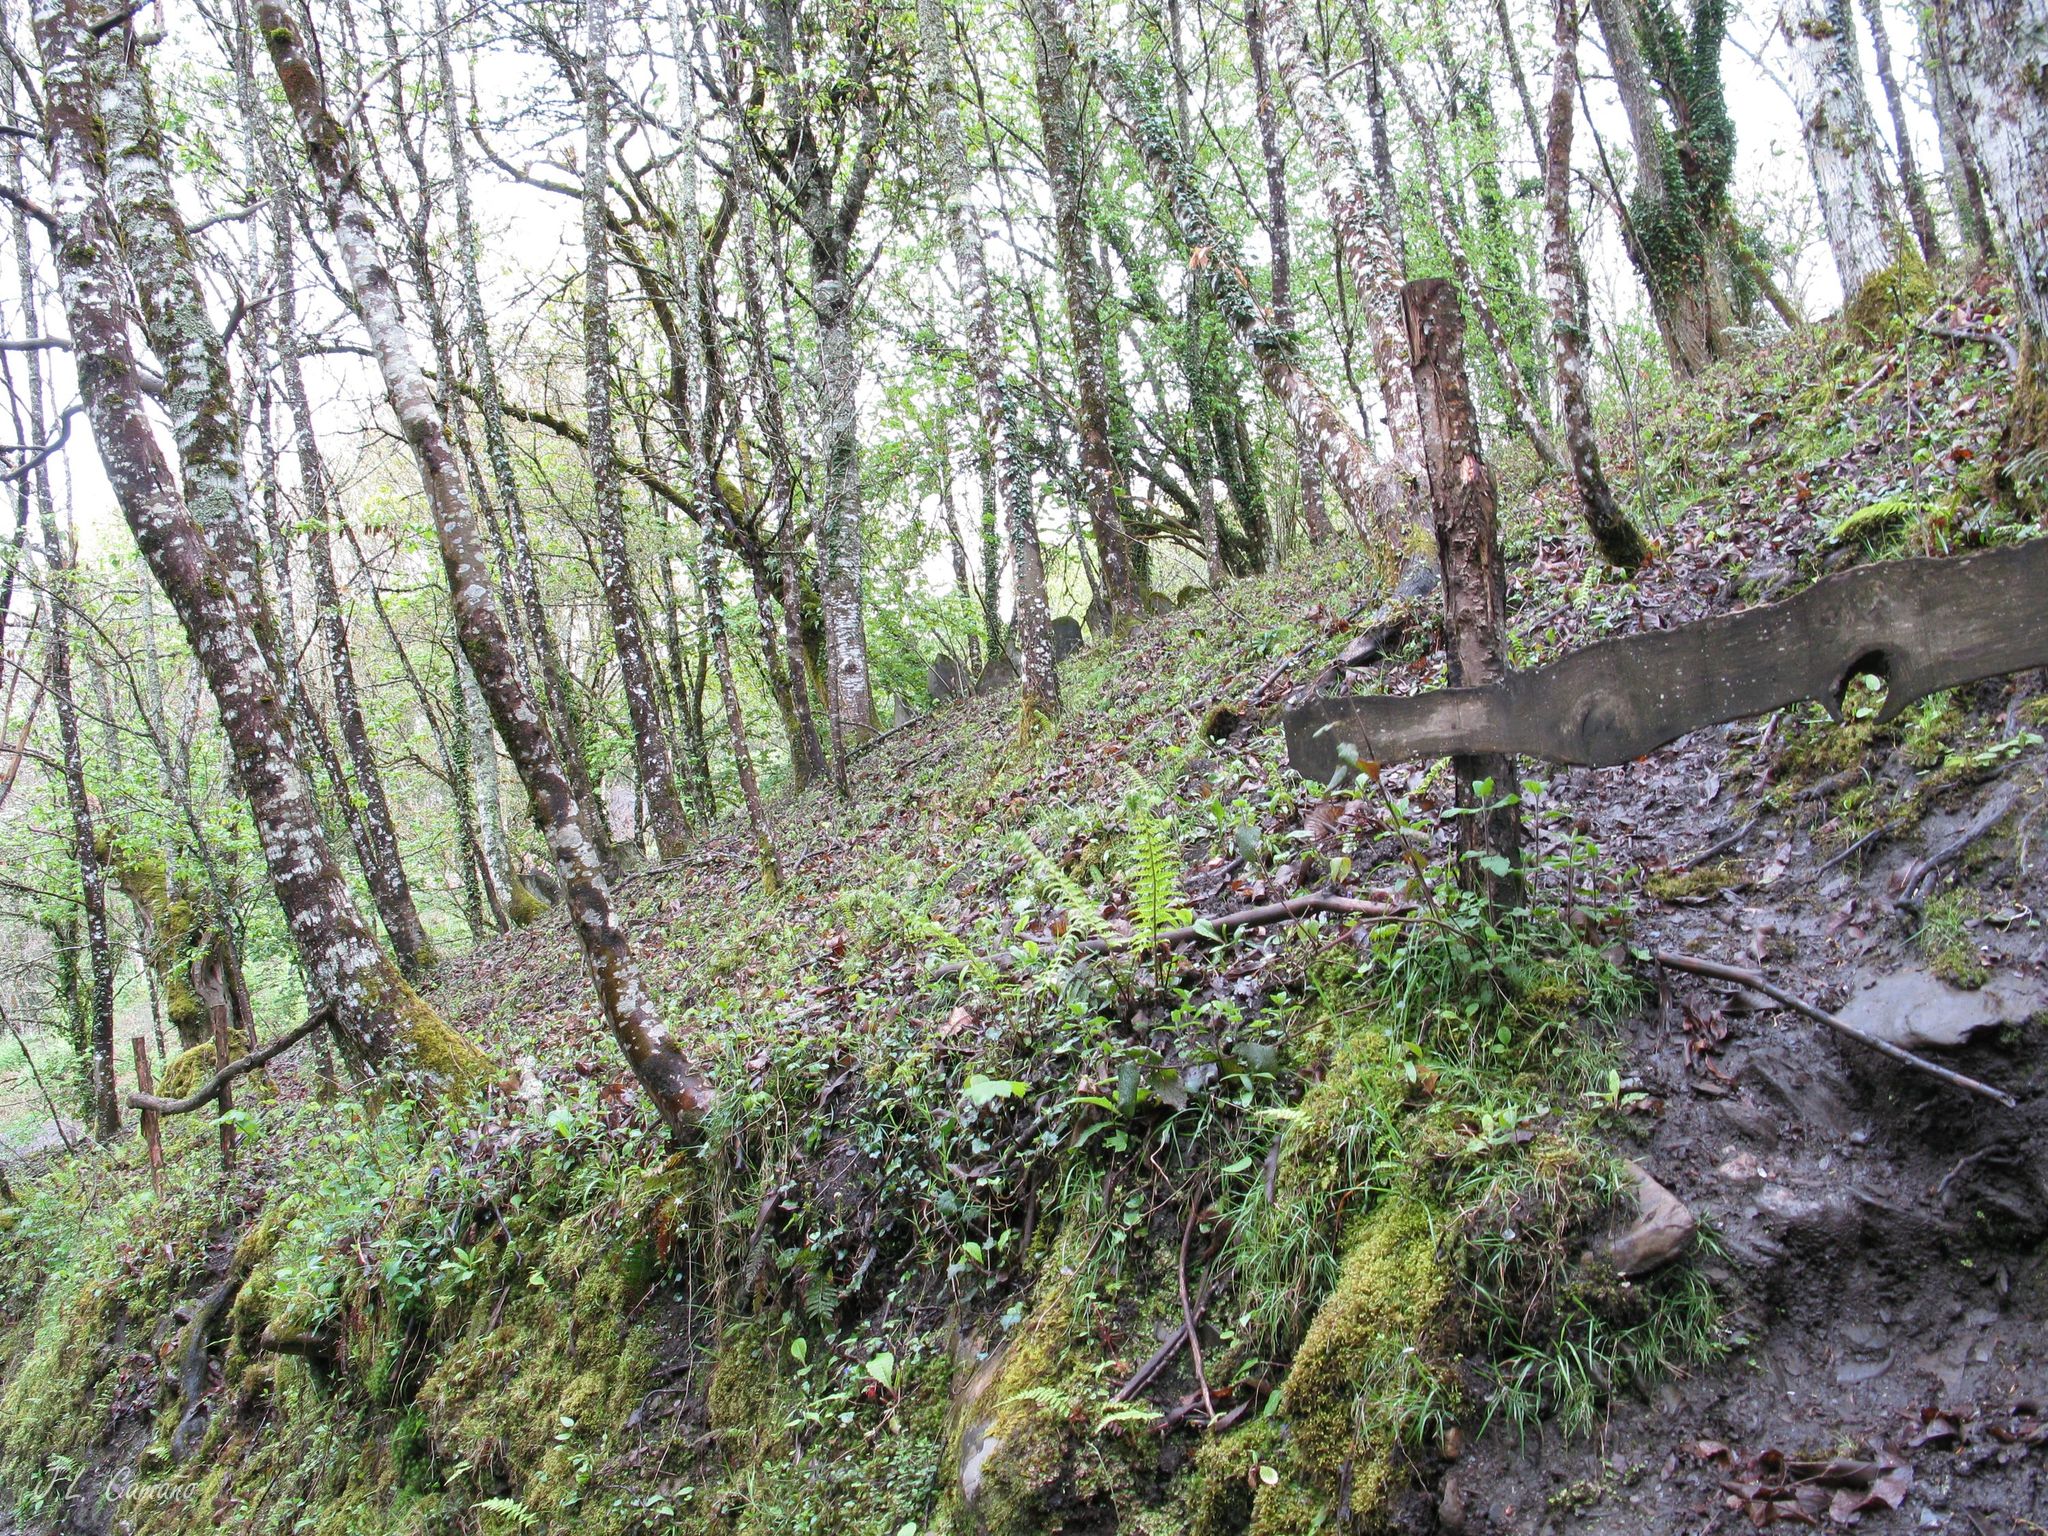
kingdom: Plantae
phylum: Bryophyta
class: Bryopsida
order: Bryales
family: Mniaceae
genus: Plagiomnium
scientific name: Plagiomnium undulatum
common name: Hart's-tongue thyme-moss
